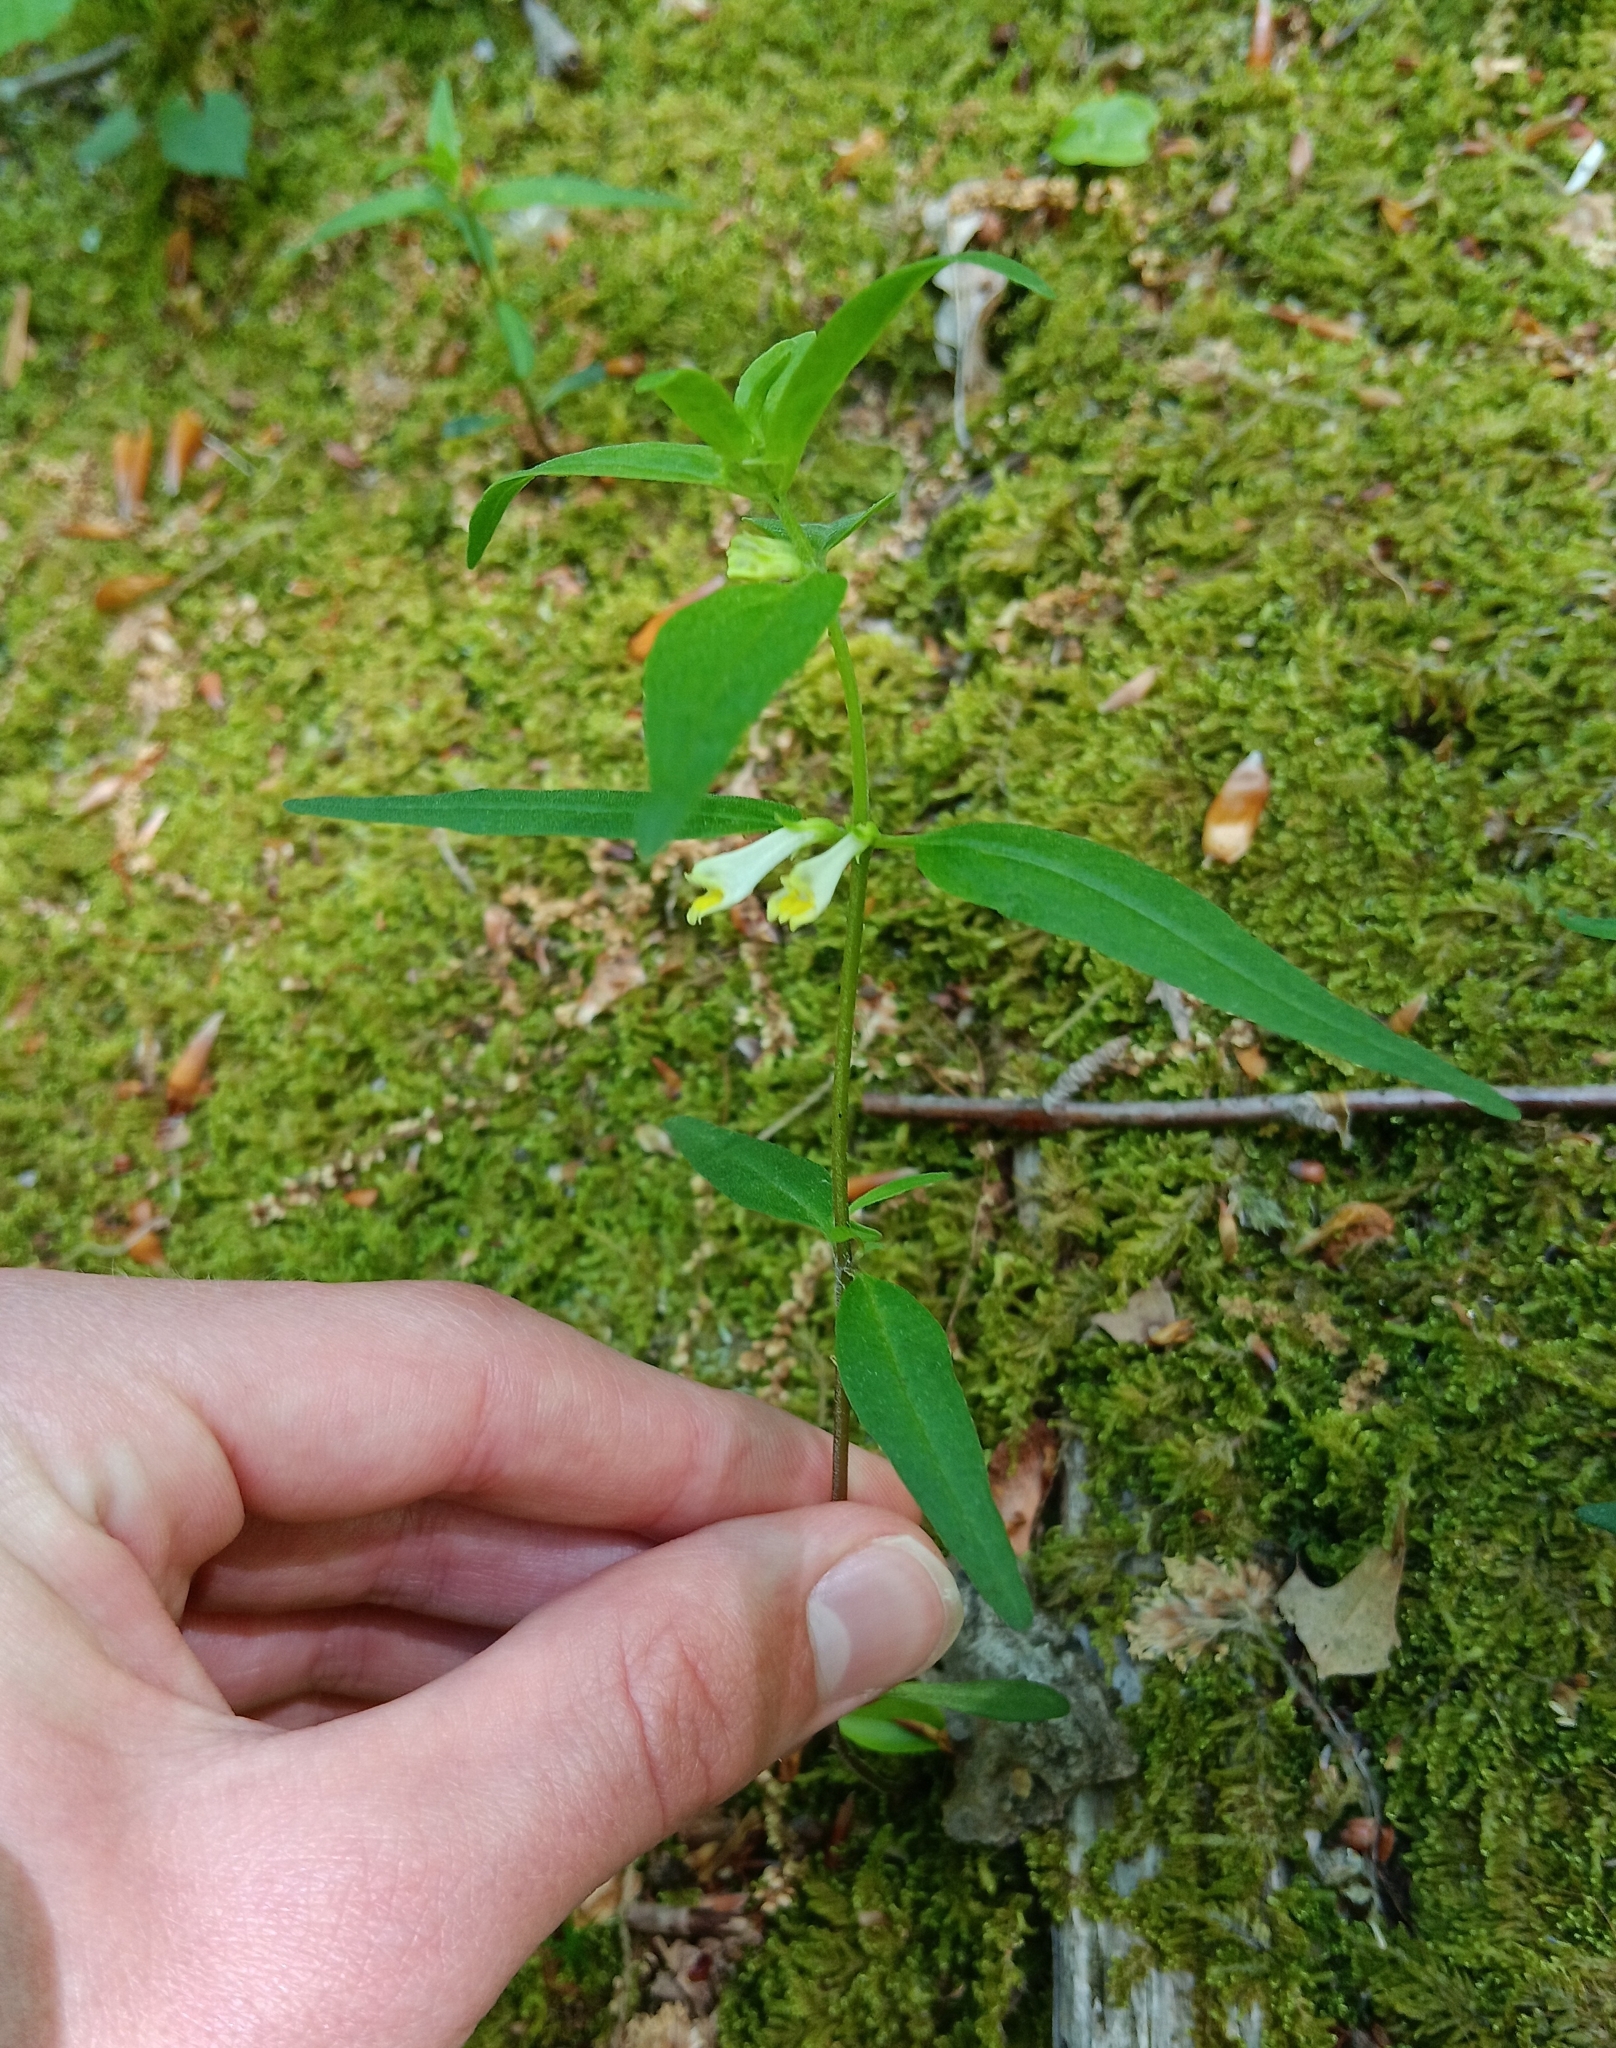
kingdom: Plantae
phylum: Tracheophyta
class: Magnoliopsida
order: Lamiales
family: Orobanchaceae
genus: Melampyrum
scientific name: Melampyrum lineare
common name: American cow-wheat
